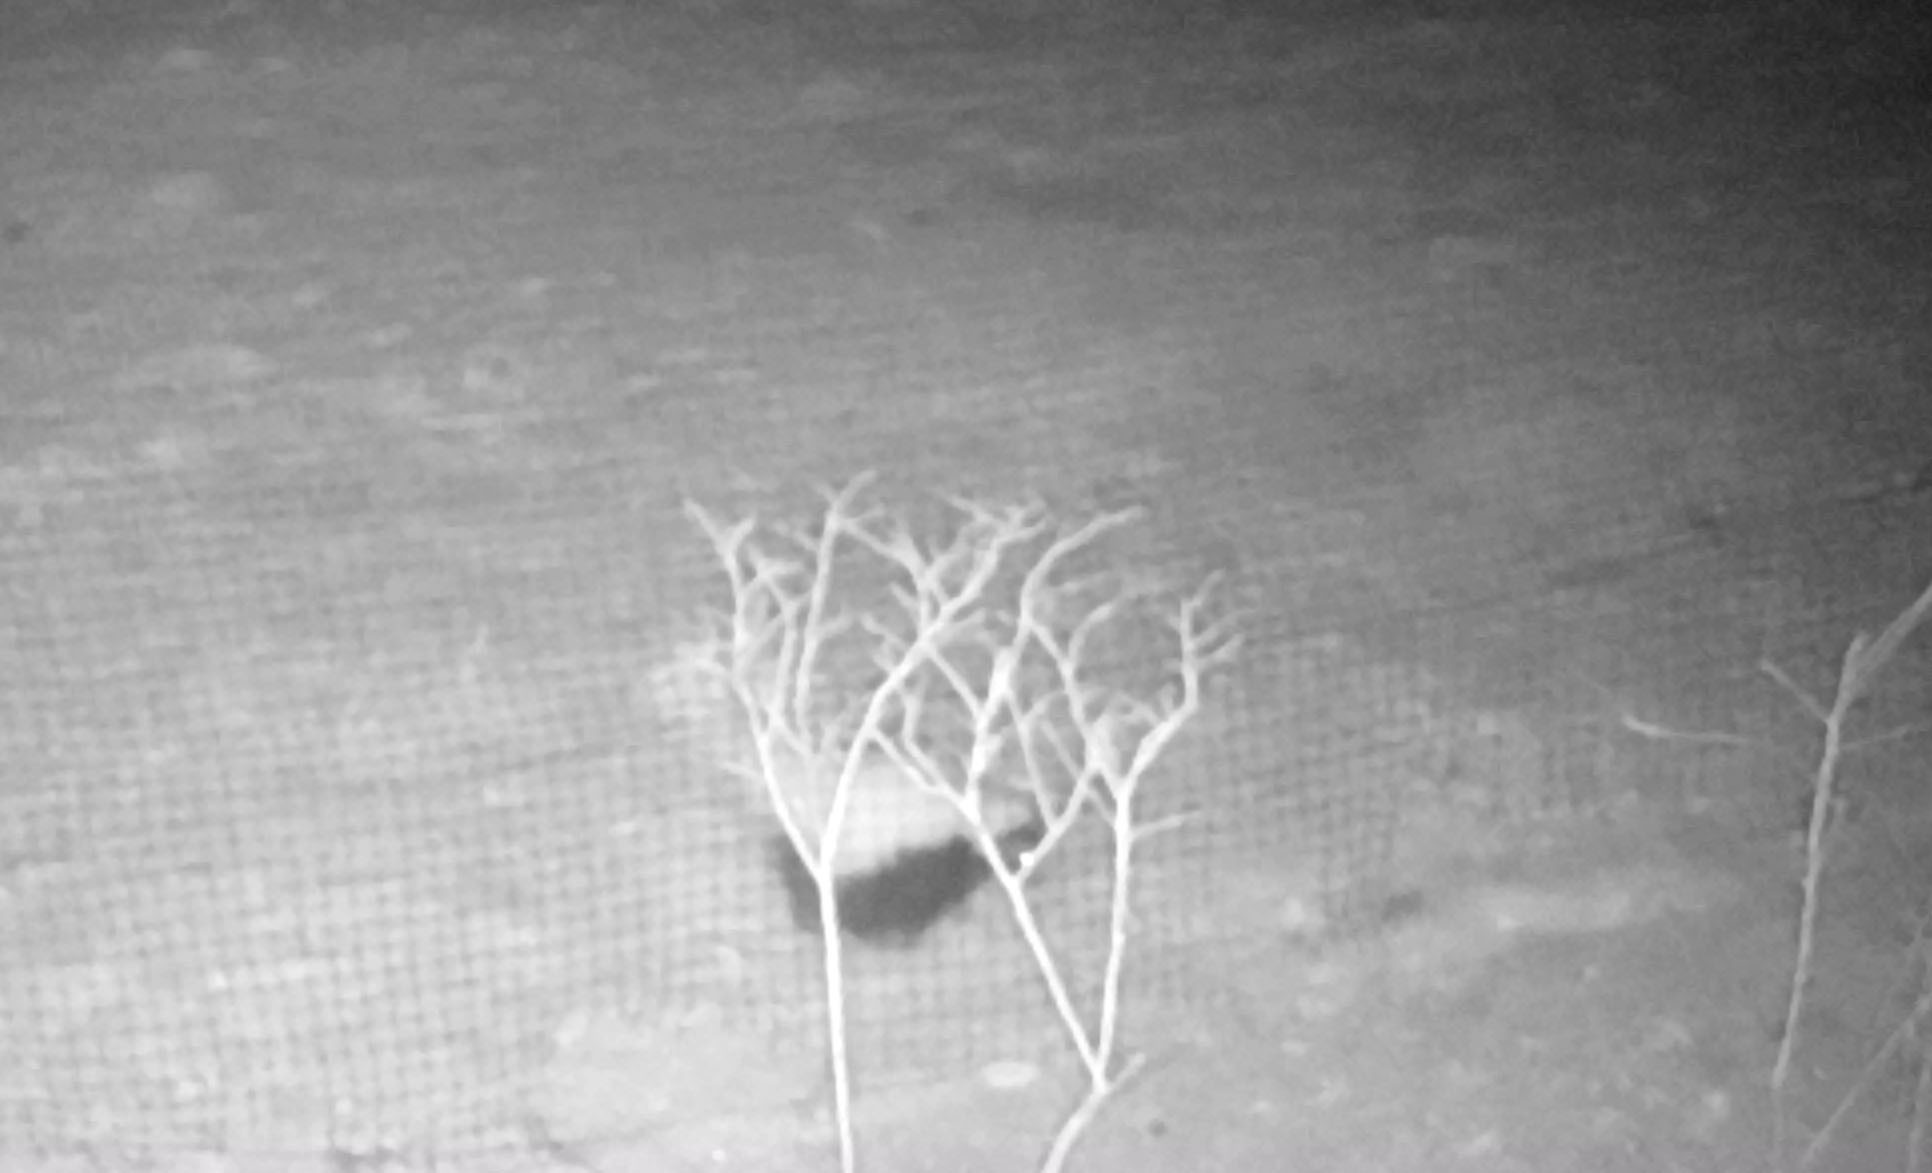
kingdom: Animalia
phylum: Chordata
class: Mammalia
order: Carnivora
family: Mephitidae
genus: Mephitis
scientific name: Mephitis mephitis
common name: Striped skunk
